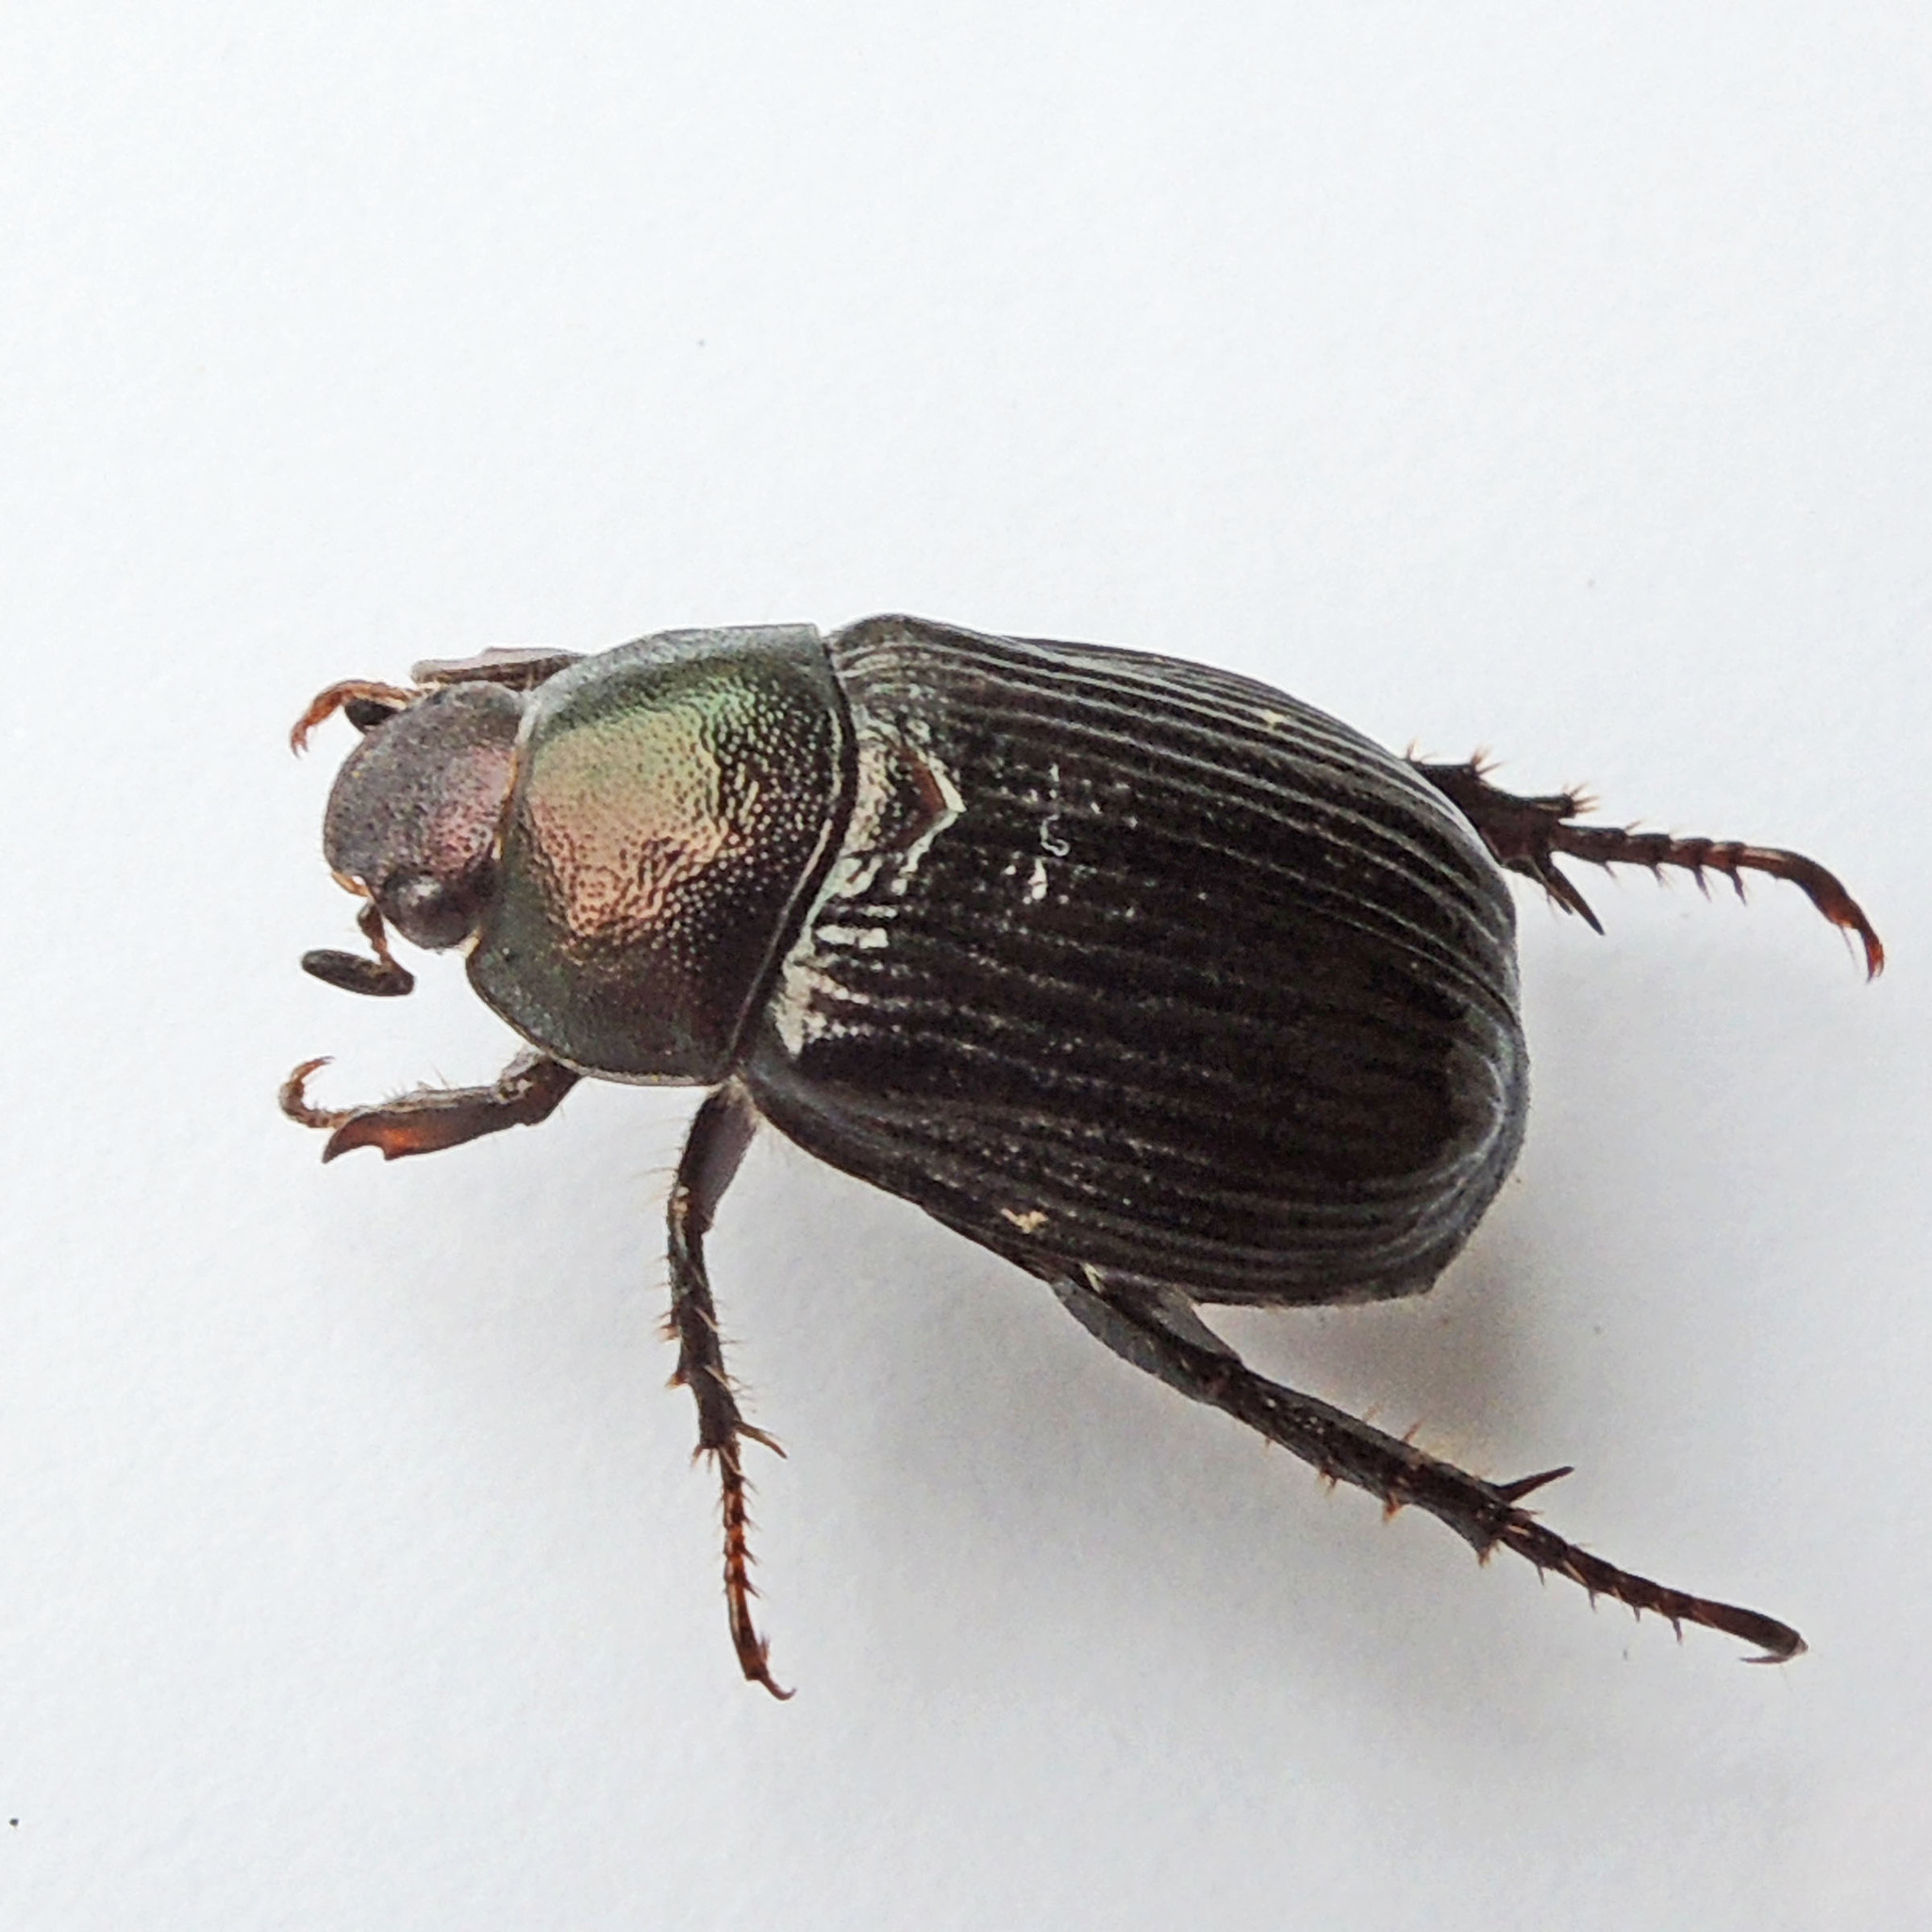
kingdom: Animalia
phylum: Arthropoda
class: Insecta
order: Coleoptera
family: Scarabaeidae
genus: Exomala
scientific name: Exomala orientalis
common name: Oriental beetle
